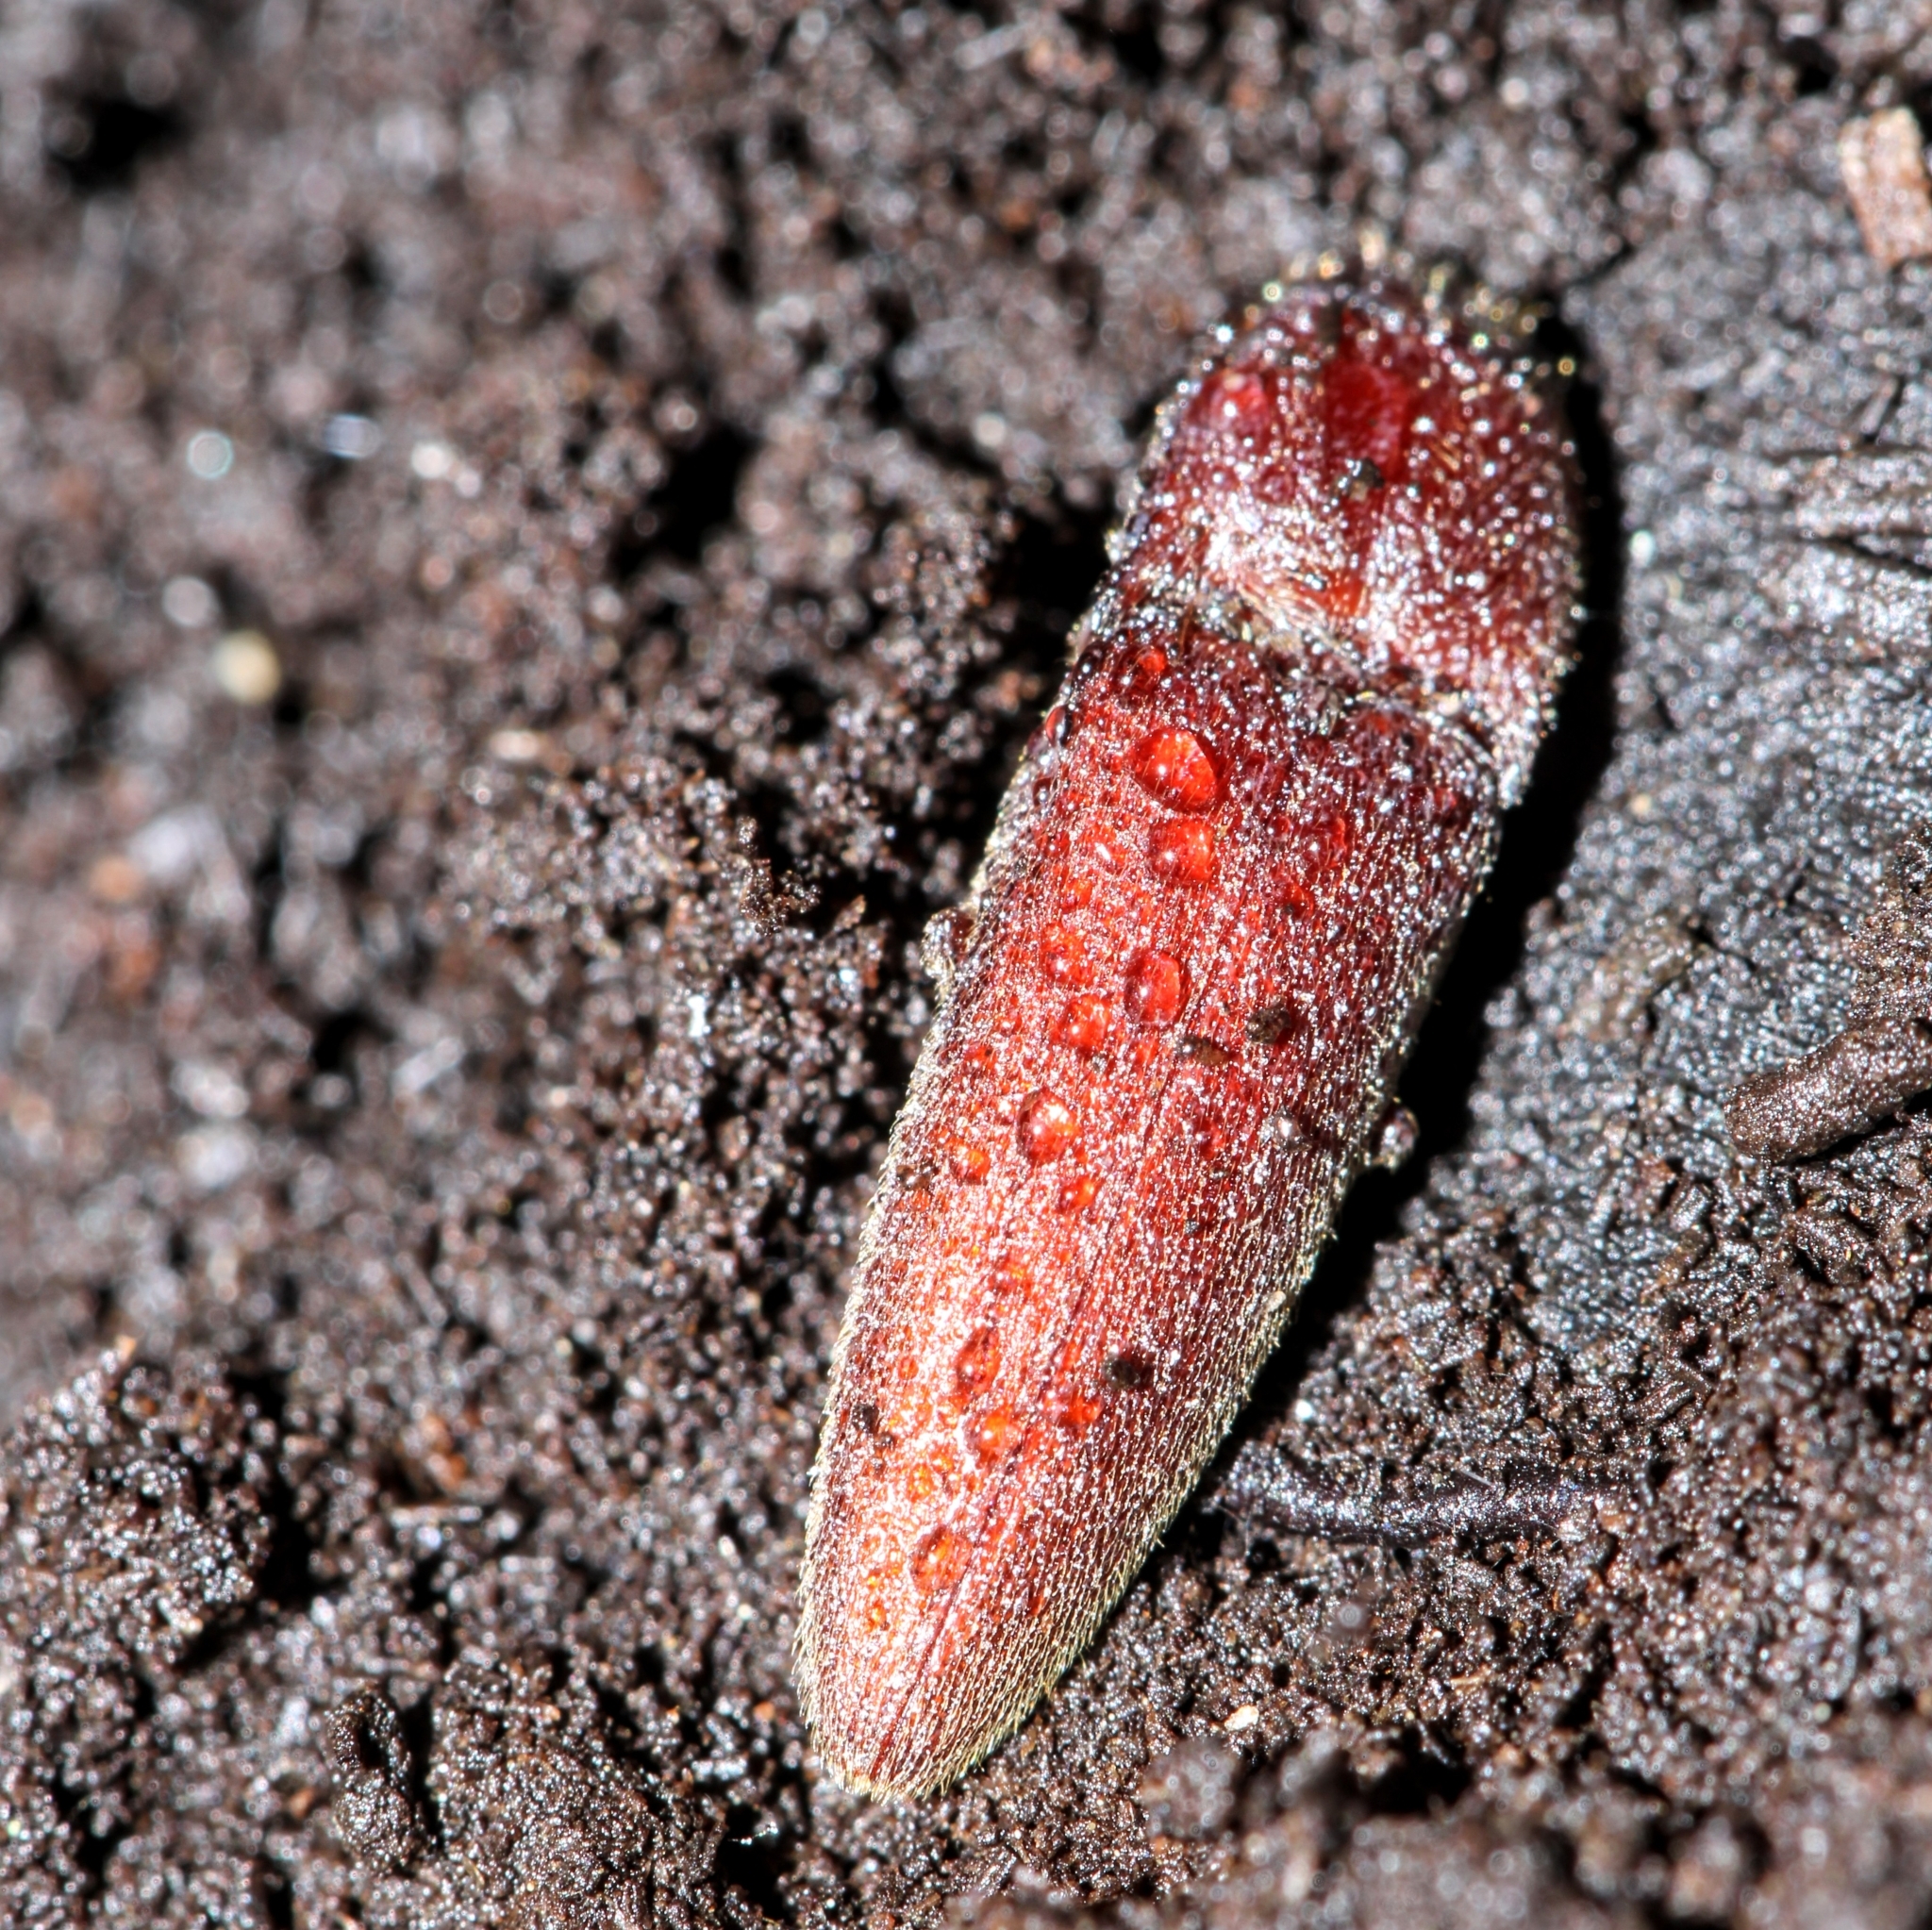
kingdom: Animalia
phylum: Arthropoda
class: Insecta
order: Coleoptera
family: Elateridae
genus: Melanotus
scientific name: Melanotus
